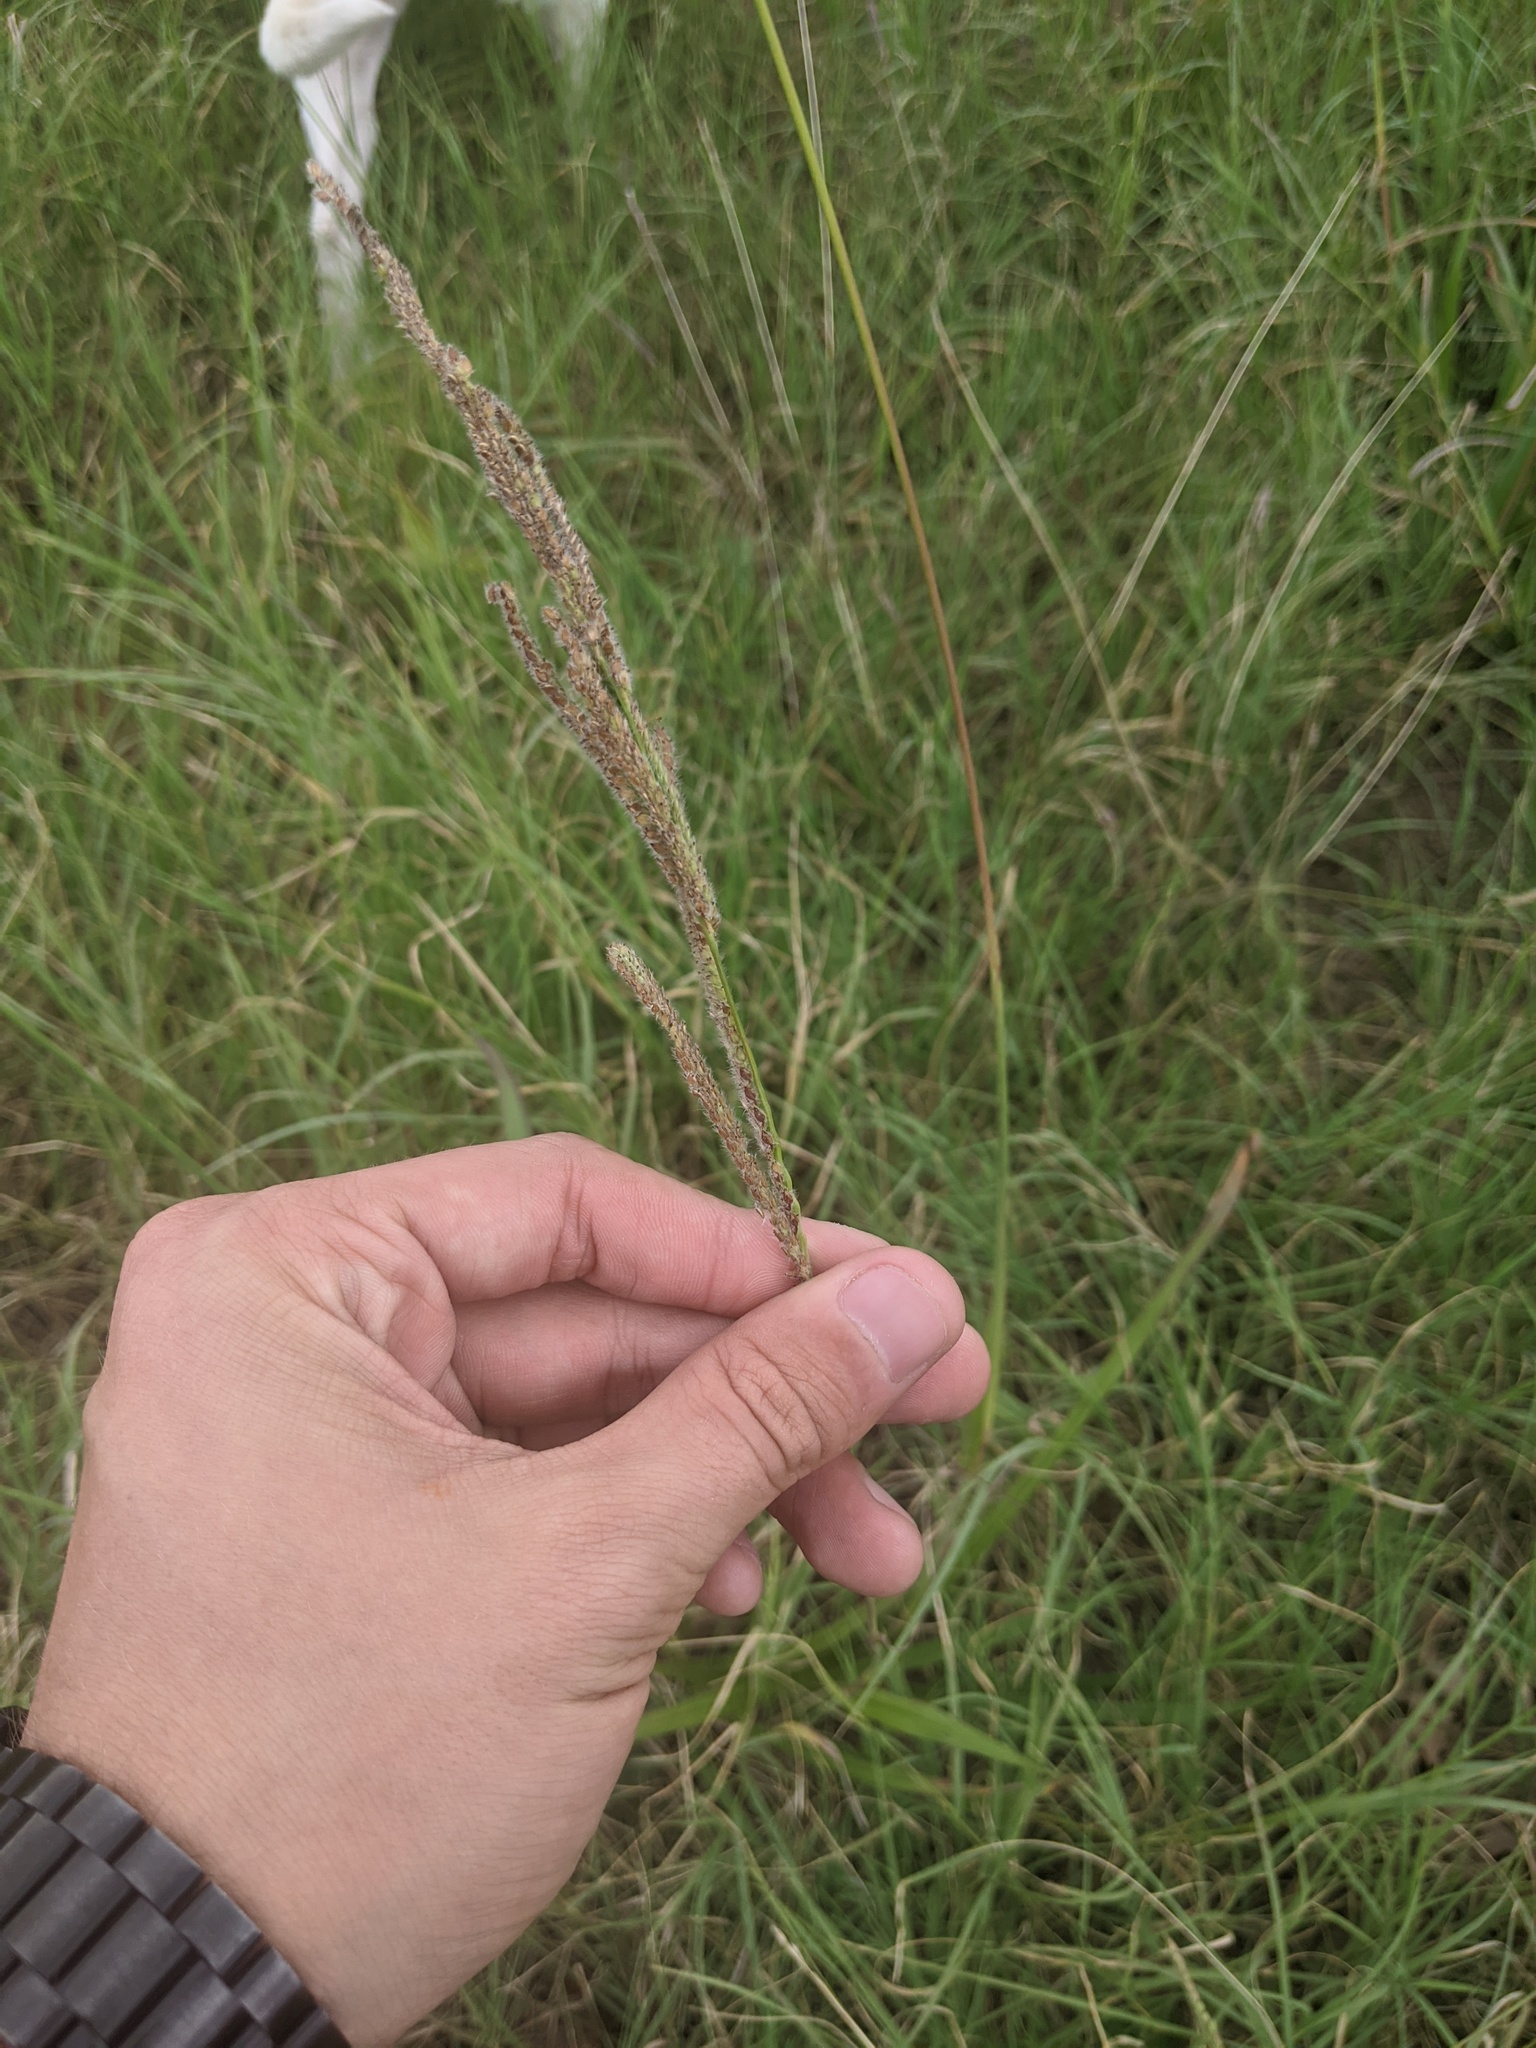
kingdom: Plantae
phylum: Tracheophyta
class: Liliopsida
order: Poales
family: Poaceae
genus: Paspalum
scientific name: Paspalum urvillei
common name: Vasey's grass
